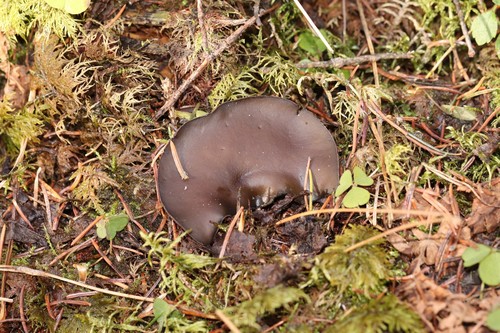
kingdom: Fungi
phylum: Ascomycota
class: Pezizomycetes
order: Pezizales
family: Sarcosomataceae
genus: Pseudoplectania
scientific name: Pseudoplectania melaena
